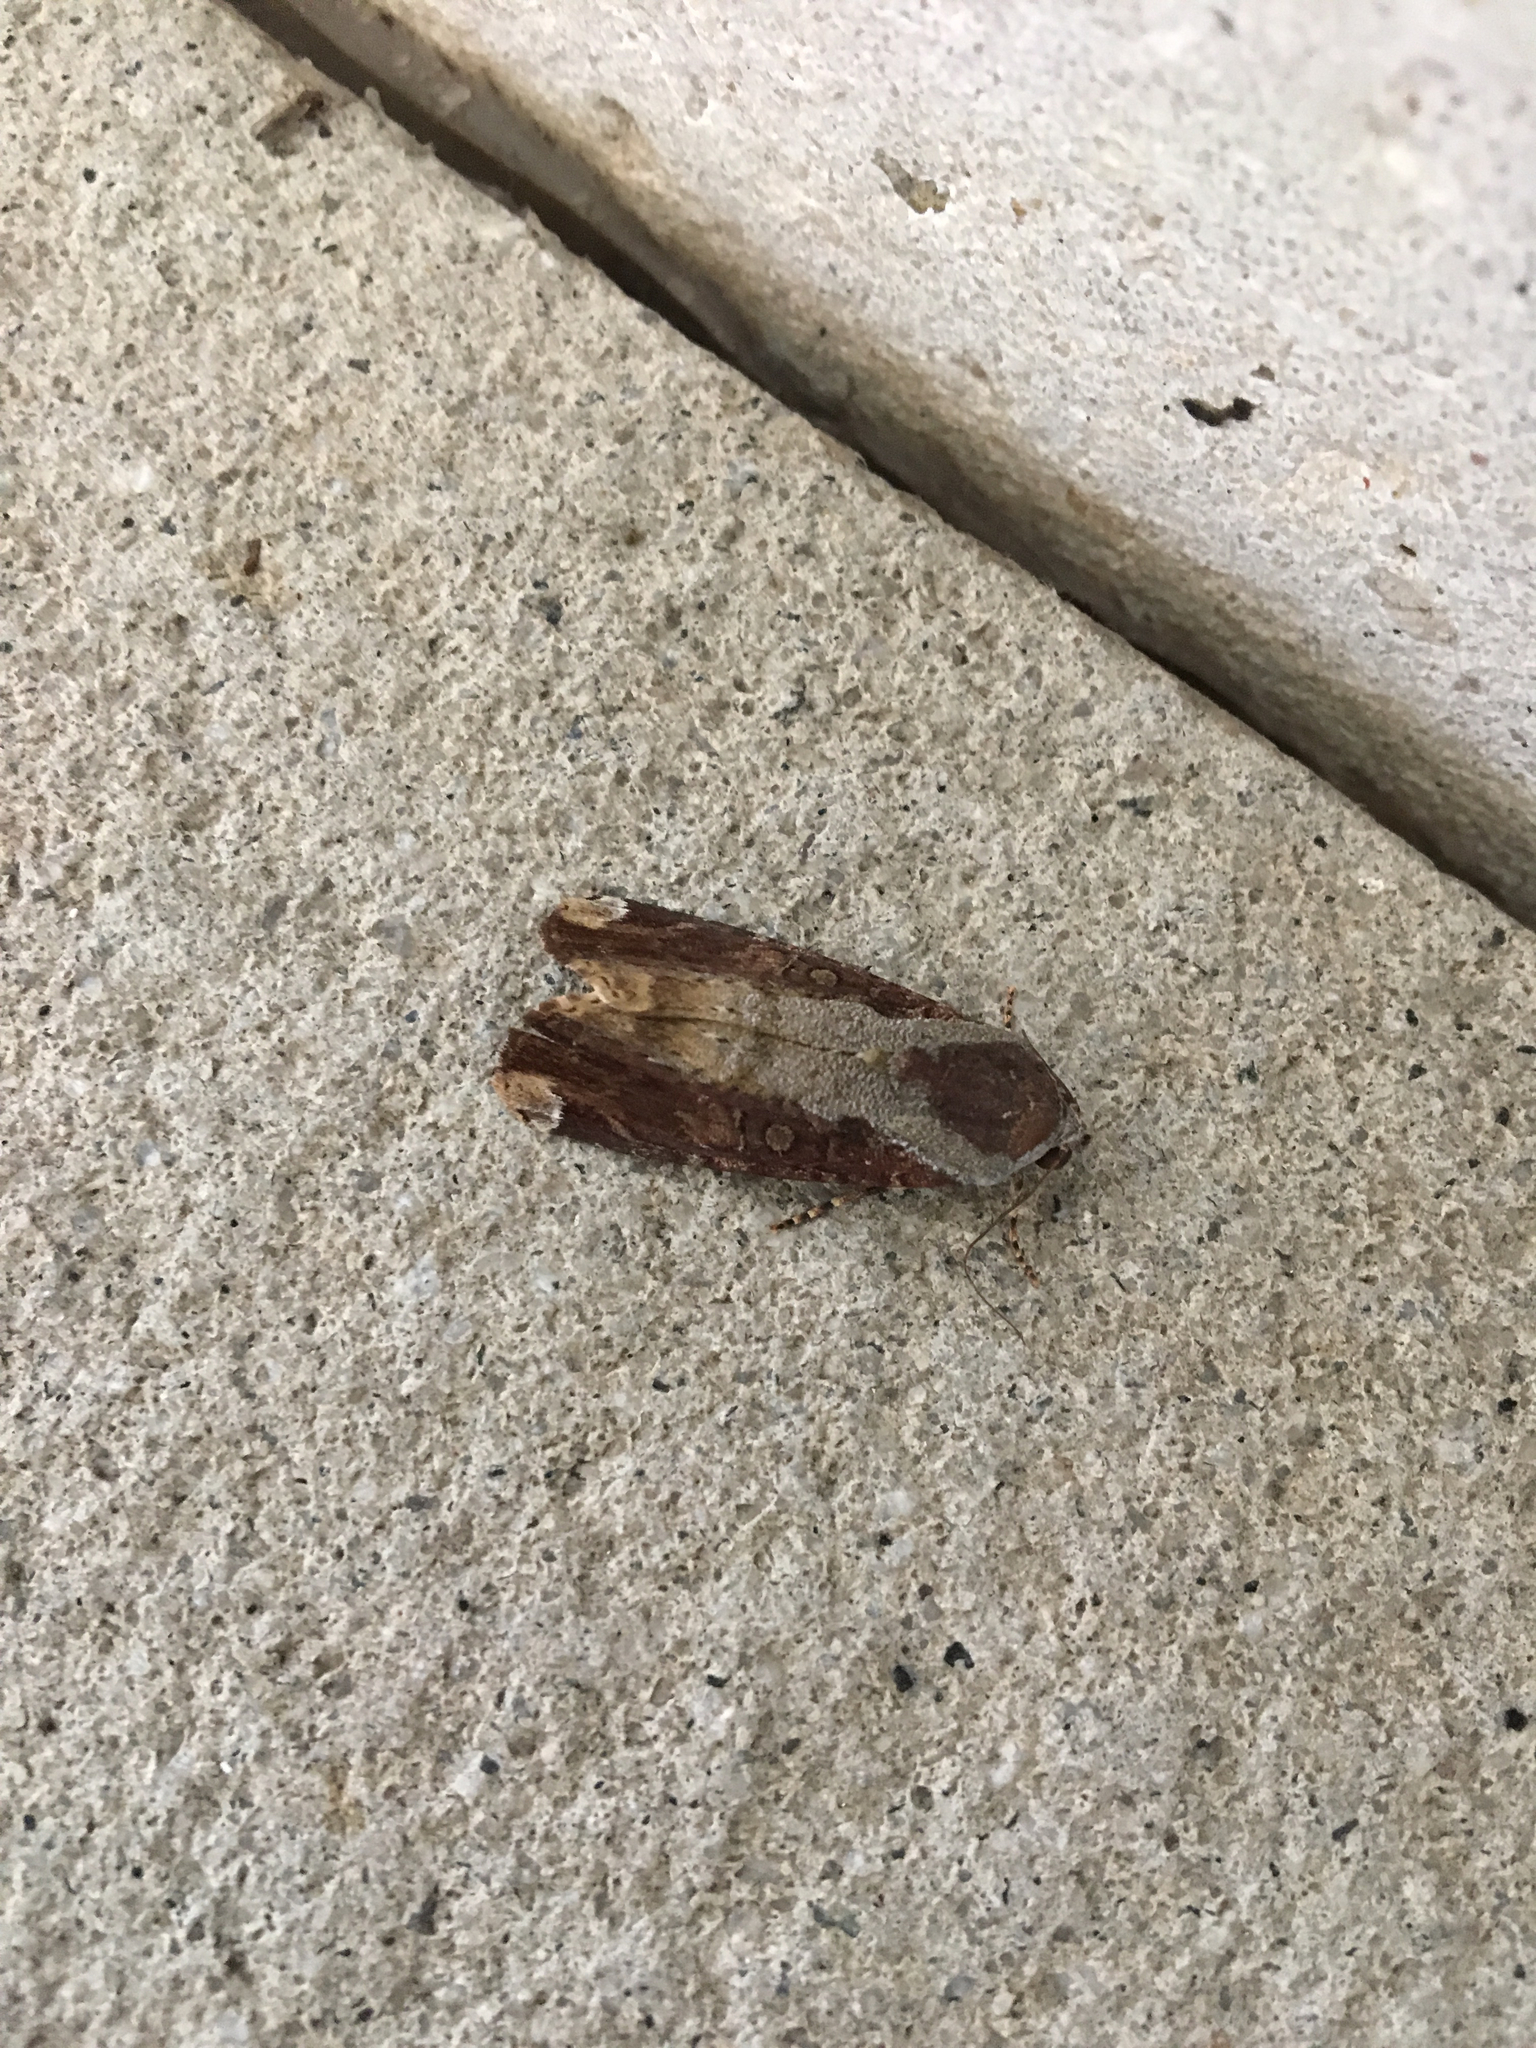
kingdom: Animalia
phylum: Arthropoda
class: Insecta
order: Lepidoptera
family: Noctuidae
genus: Magusa
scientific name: Magusa divaricata
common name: Orb narrow-winged moth
